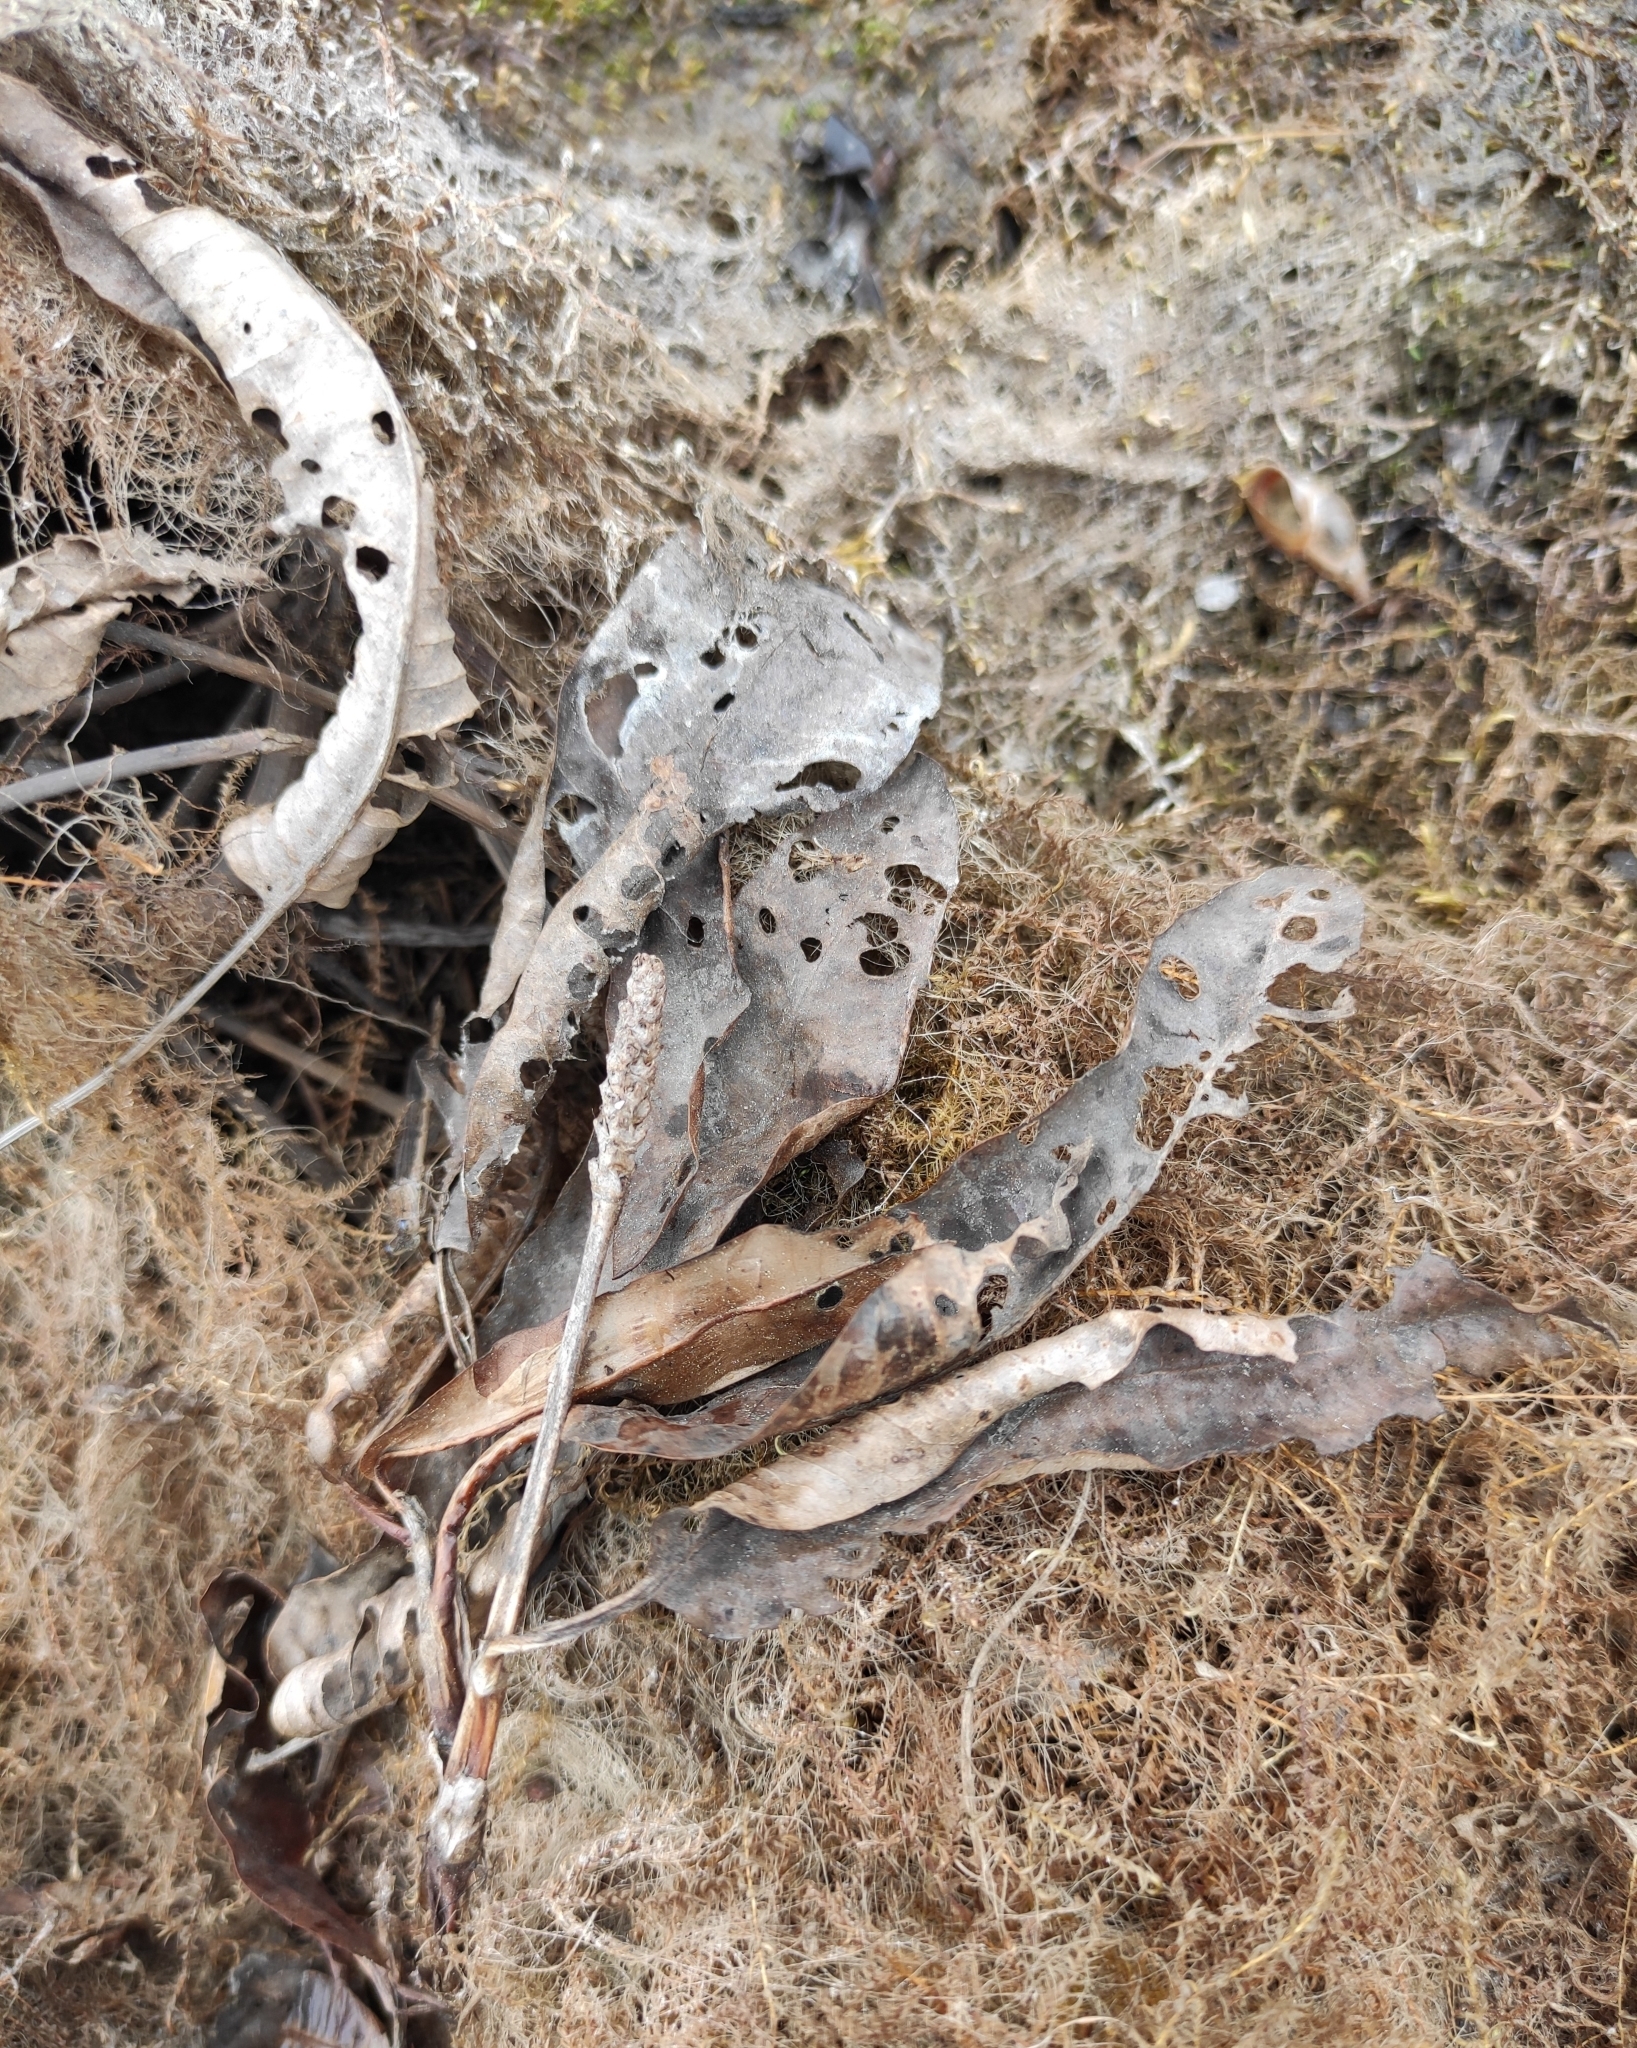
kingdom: Plantae
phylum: Tracheophyta
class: Magnoliopsida
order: Caryophyllales
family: Polygonaceae
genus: Persicaria
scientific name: Persicaria amphibia
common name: Amphibious bistort
